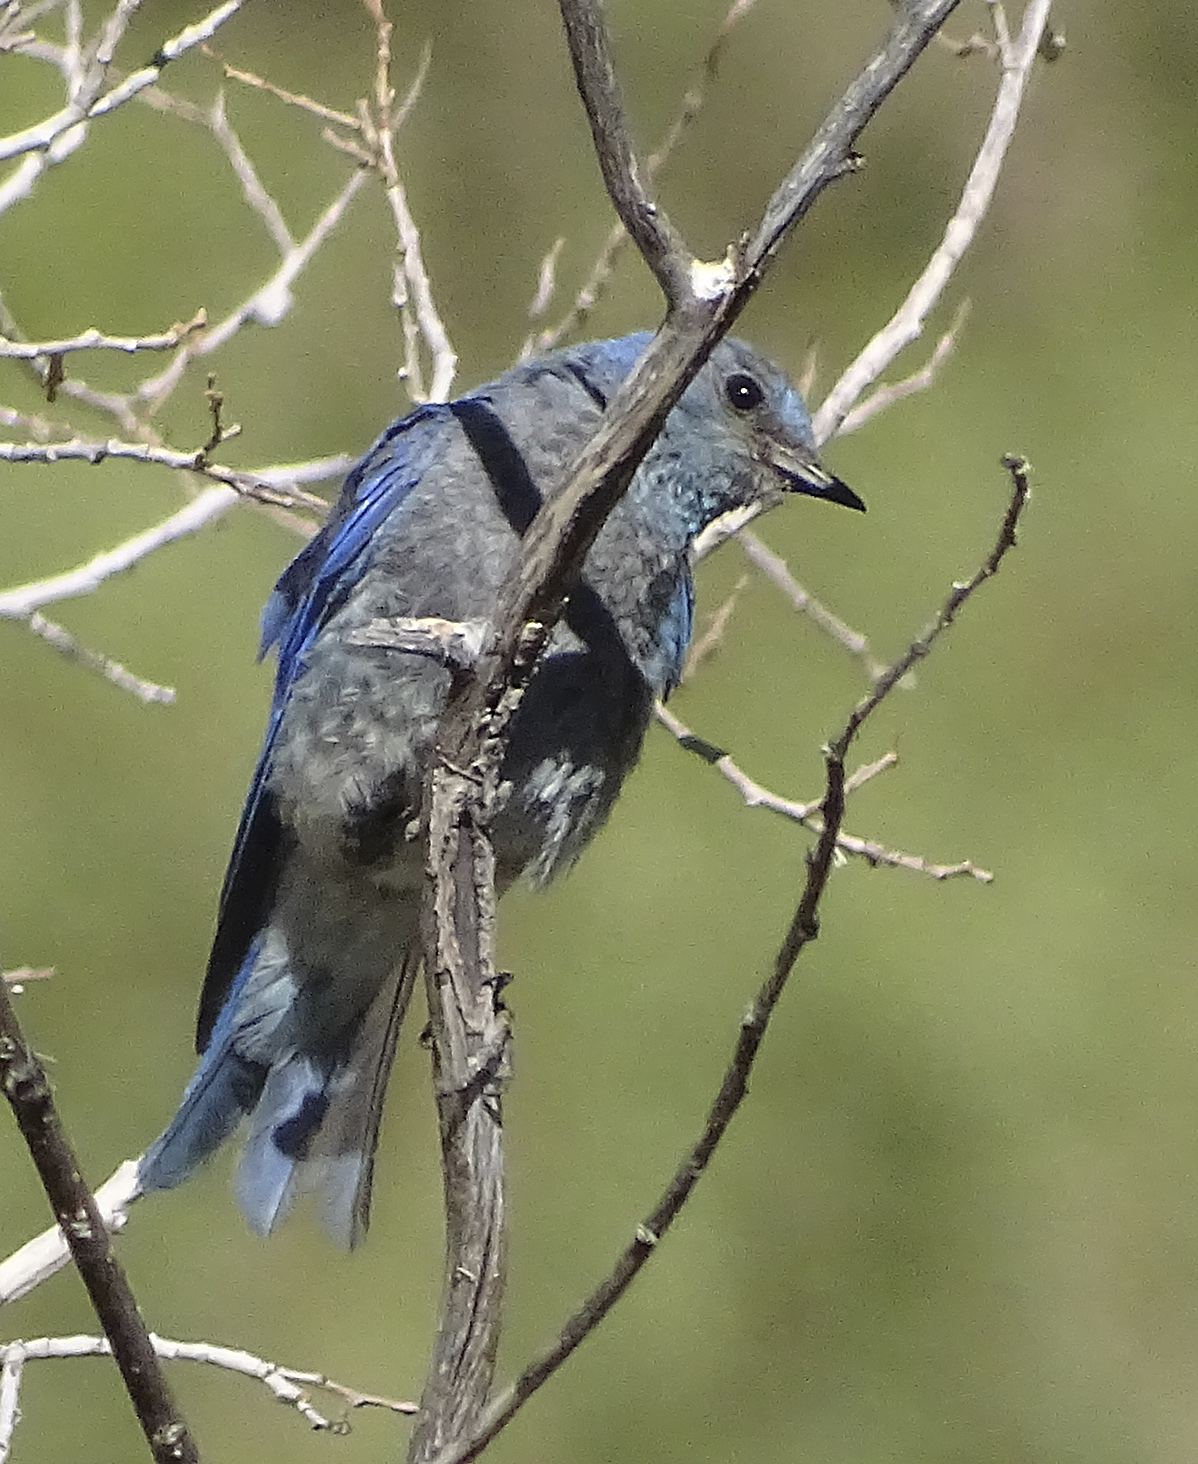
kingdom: Animalia
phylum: Chordata
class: Aves
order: Passeriformes
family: Turdidae
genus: Sialia
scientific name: Sialia currucoides
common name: Mountain bluebird
